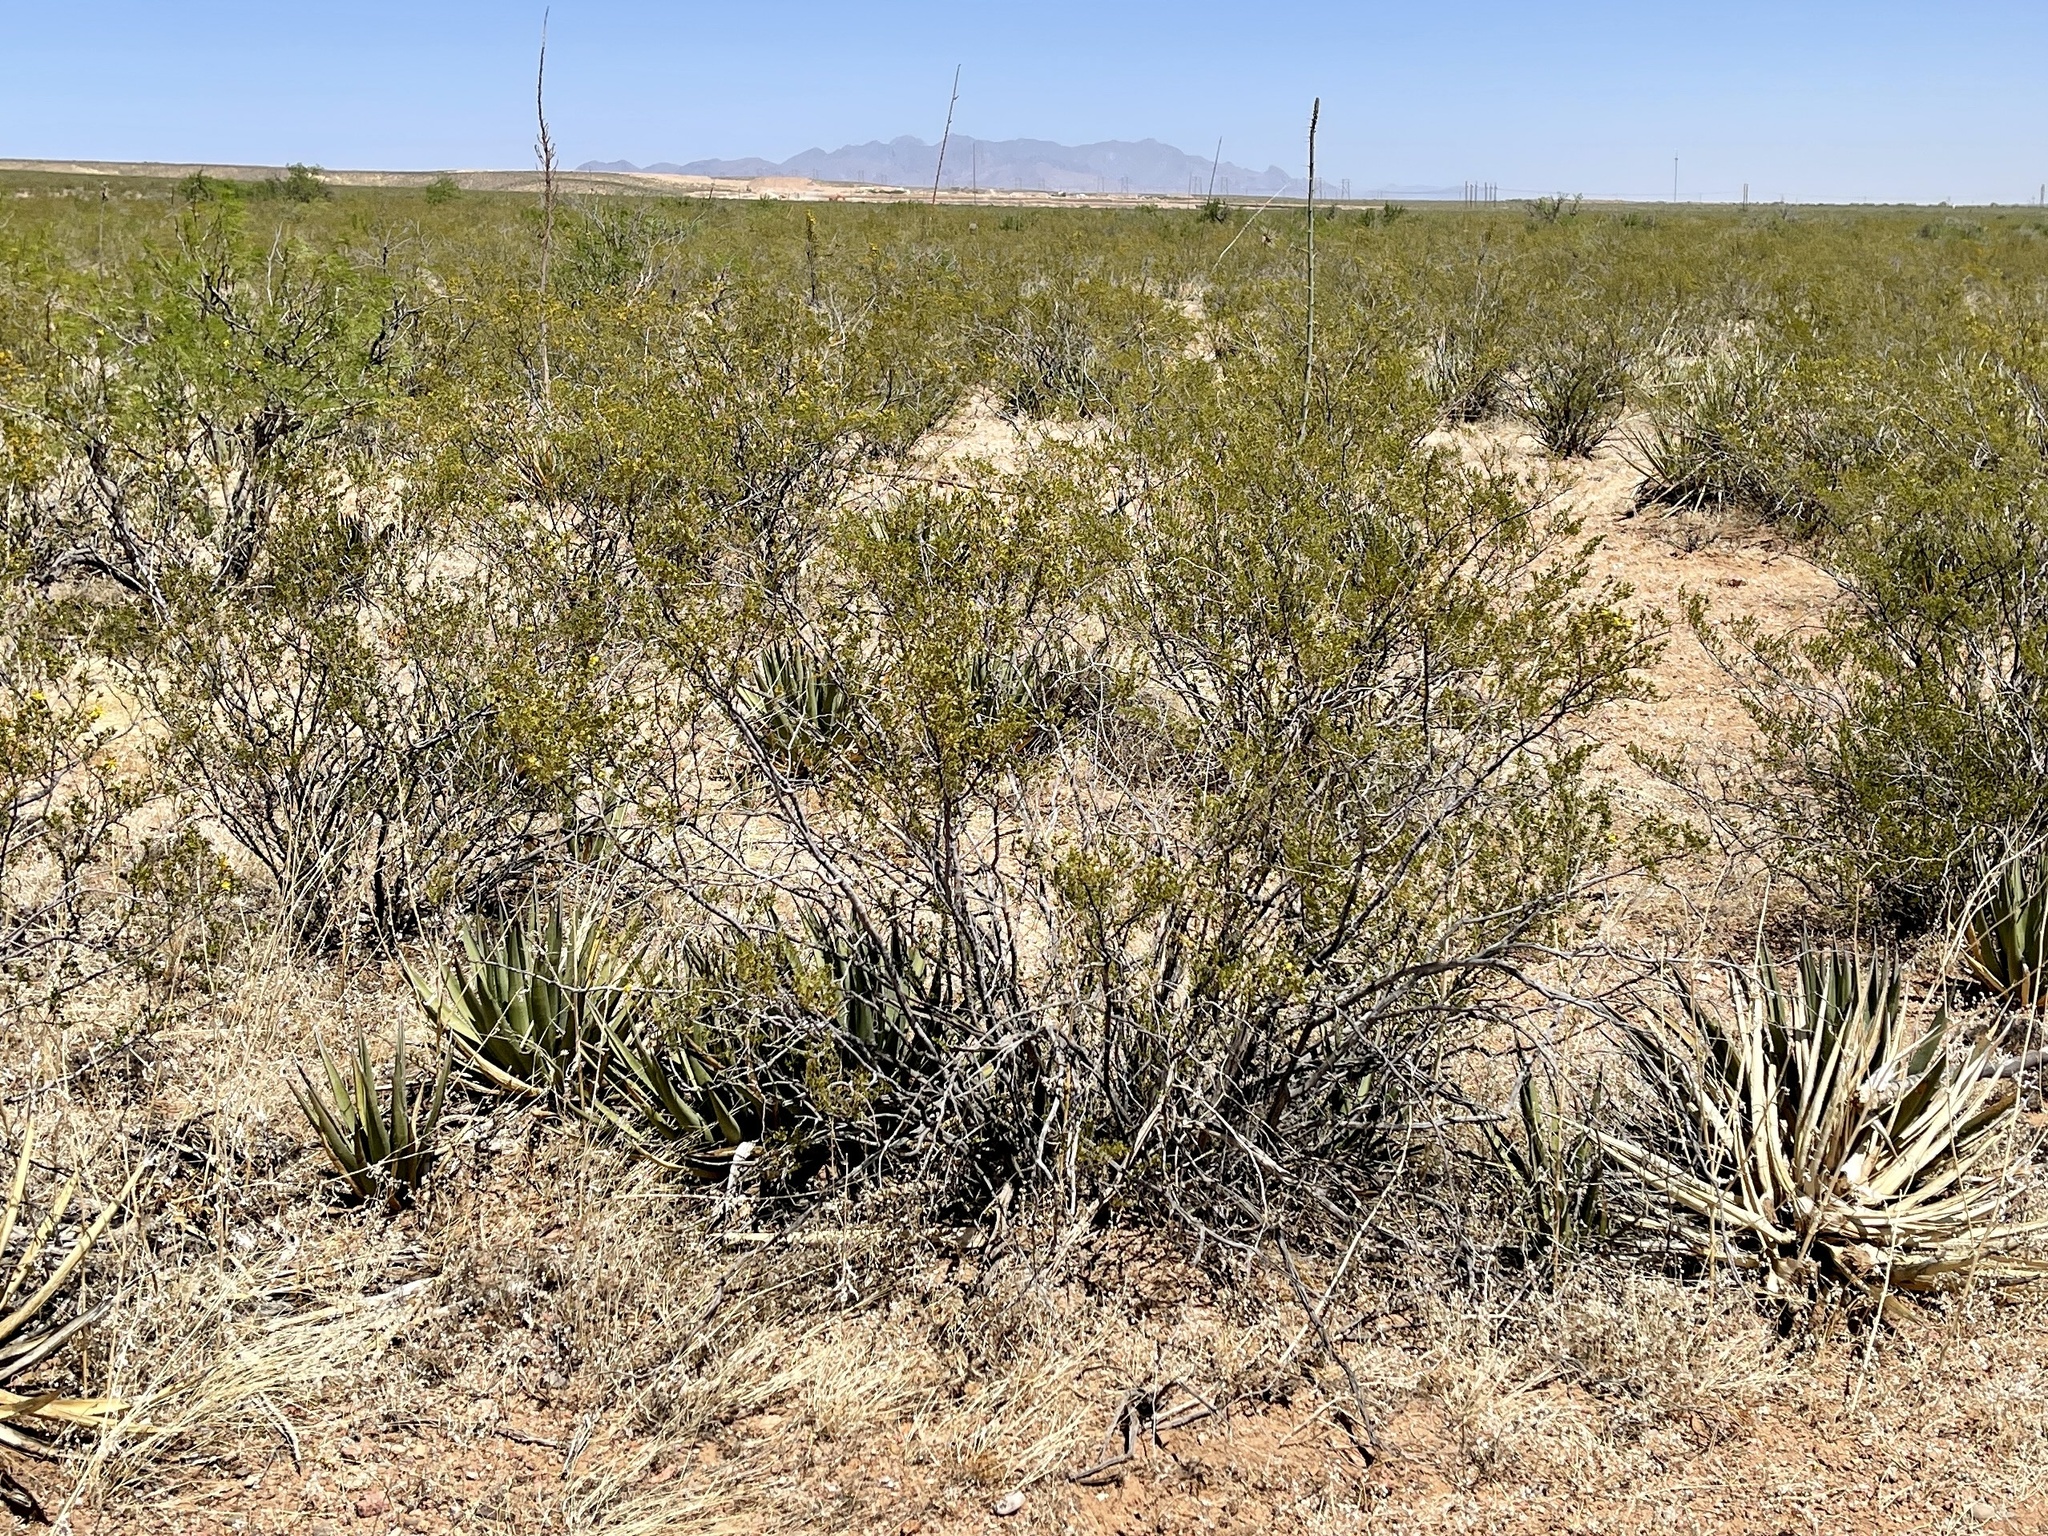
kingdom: Plantae
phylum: Tracheophyta
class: Magnoliopsida
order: Zygophyllales
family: Zygophyllaceae
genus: Larrea
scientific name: Larrea tridentata
